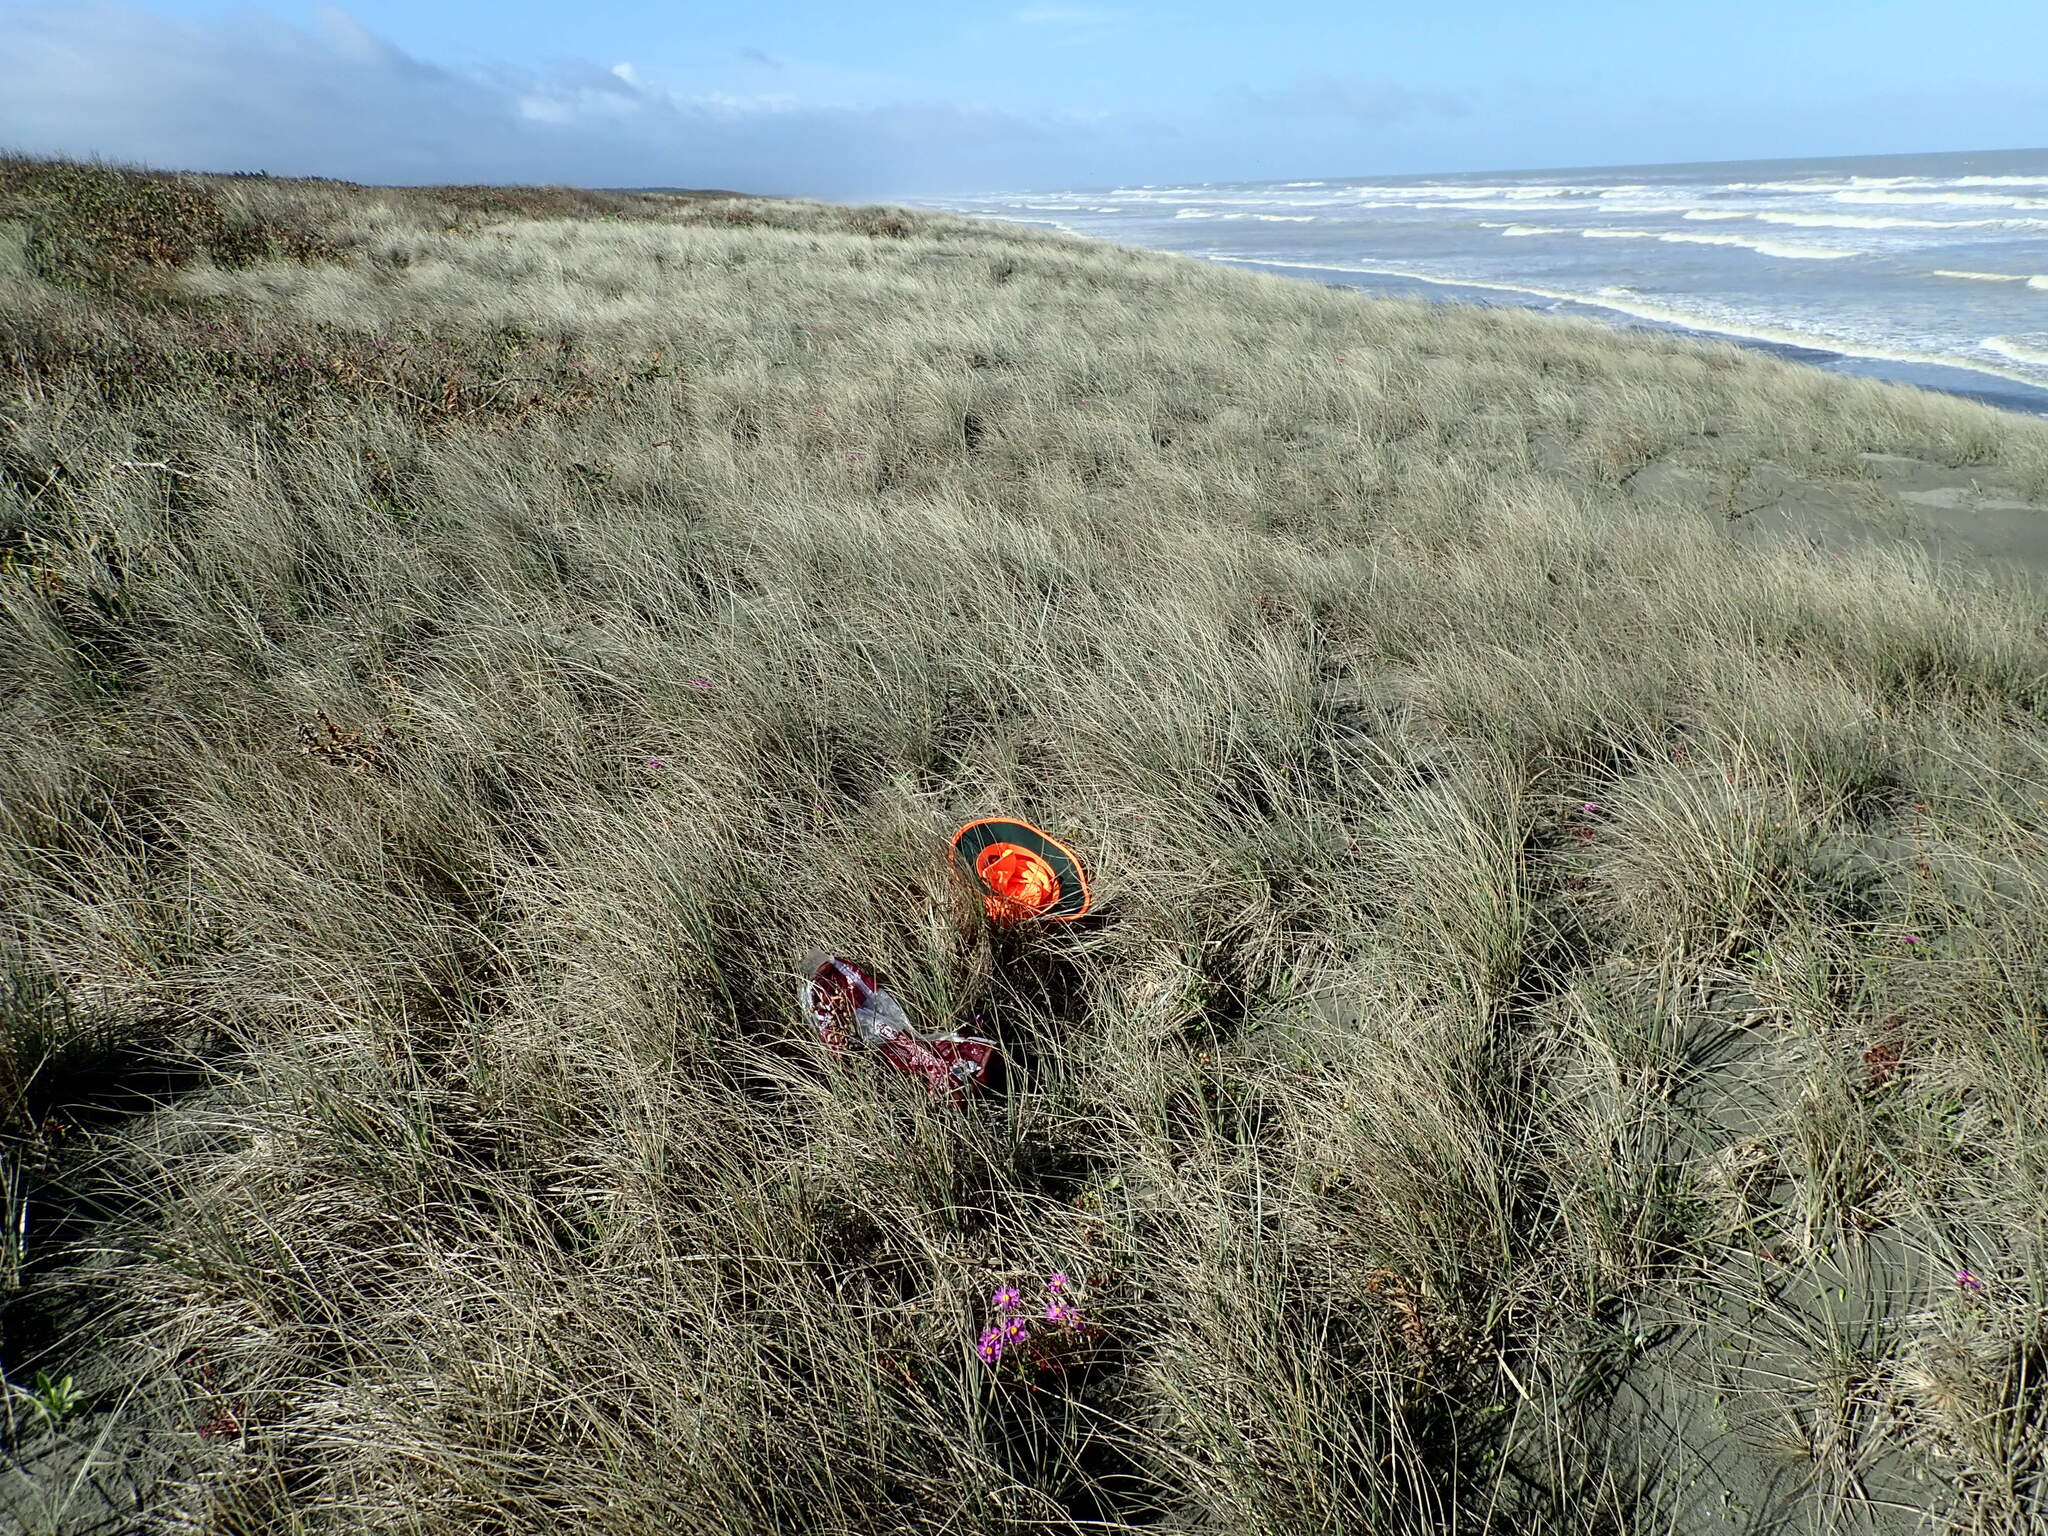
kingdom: Animalia
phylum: Arthropoda
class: Arachnida
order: Araneae
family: Theridiidae
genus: Steatoda
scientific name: Steatoda capensis
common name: Cobweb weaver
